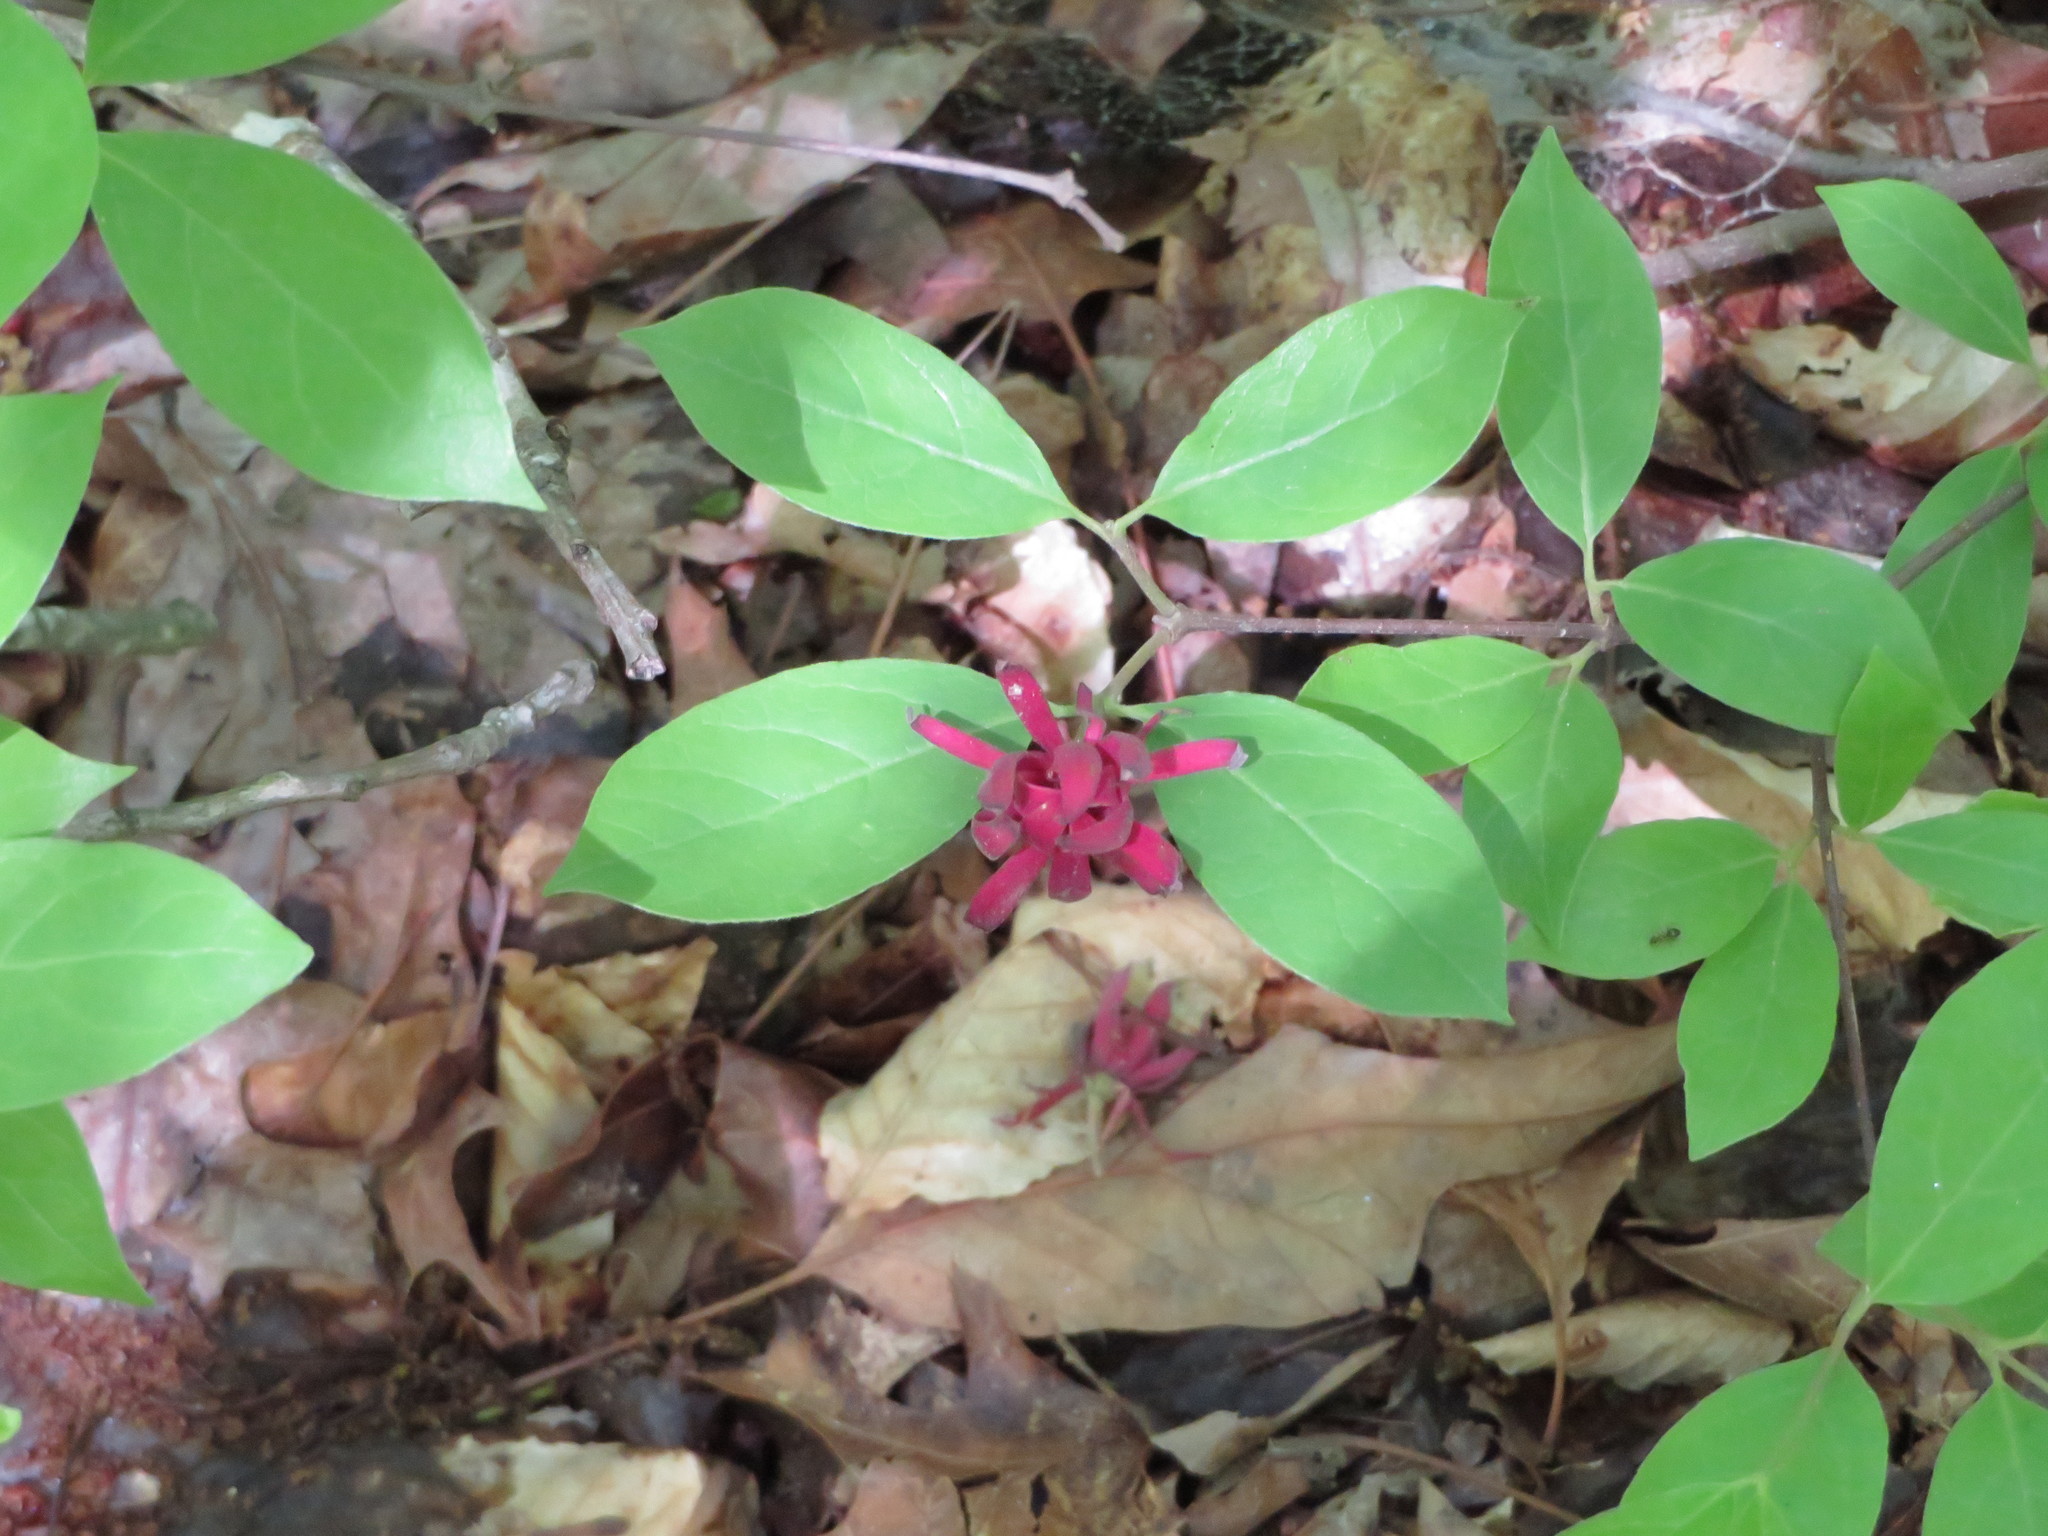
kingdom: Plantae
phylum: Tracheophyta
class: Magnoliopsida
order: Laurales
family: Calycanthaceae
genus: Calycanthus
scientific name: Calycanthus floridus
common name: Carolina-allspice
